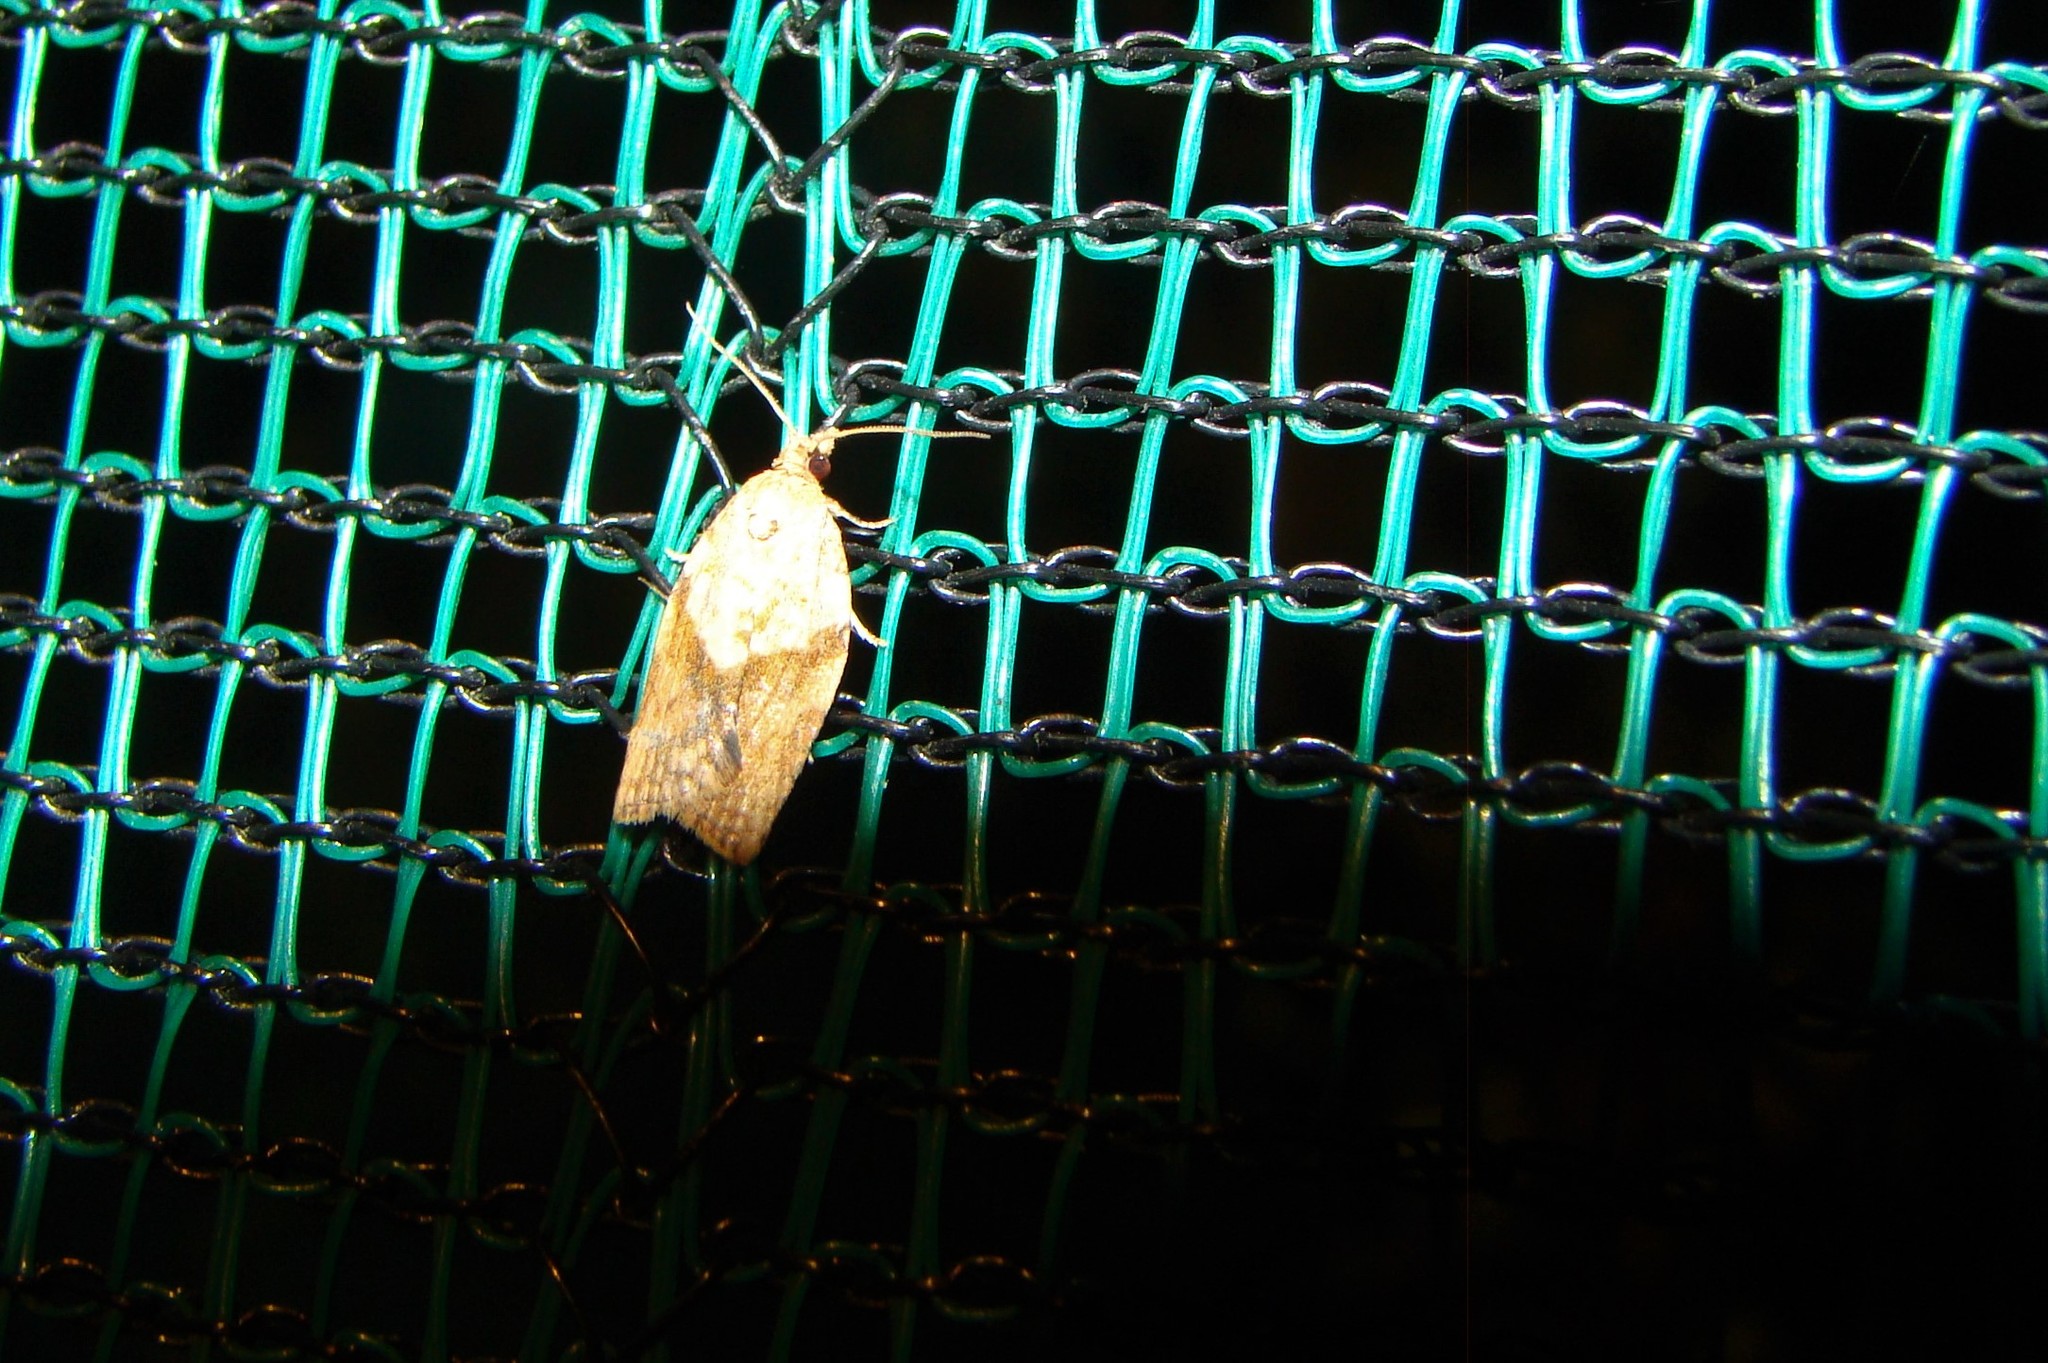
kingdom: Animalia
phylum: Arthropoda
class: Insecta
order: Lepidoptera
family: Tortricidae
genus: Epiphyas
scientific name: Epiphyas postvittana
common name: Light brown apple moth
